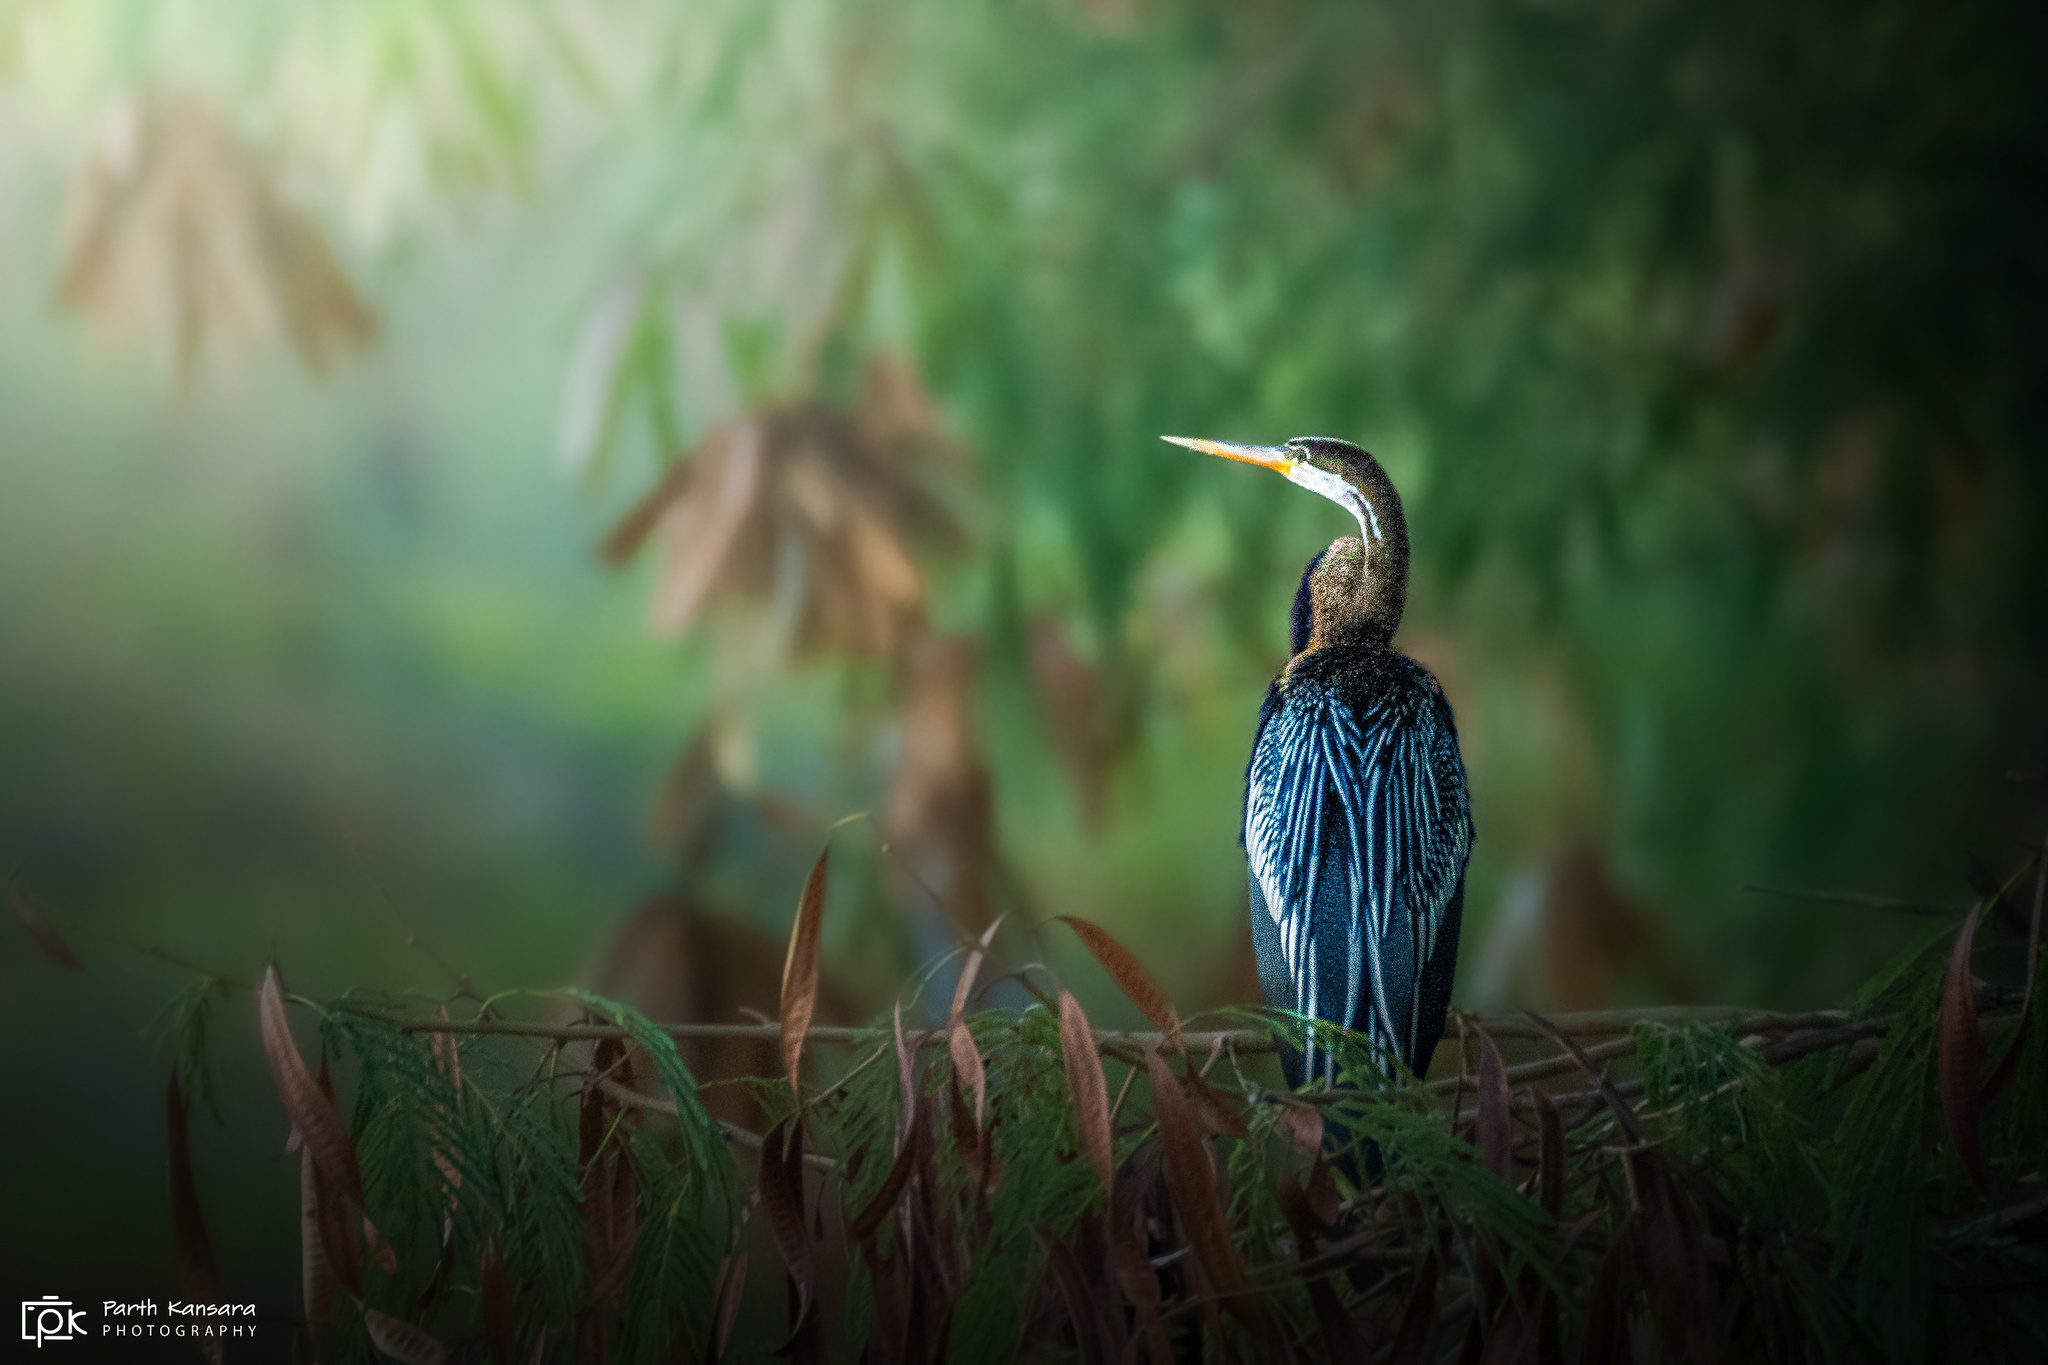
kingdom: Animalia
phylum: Chordata
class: Aves
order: Suliformes
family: Anhingidae
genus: Anhinga
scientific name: Anhinga melanogaster
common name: Oriental darter
